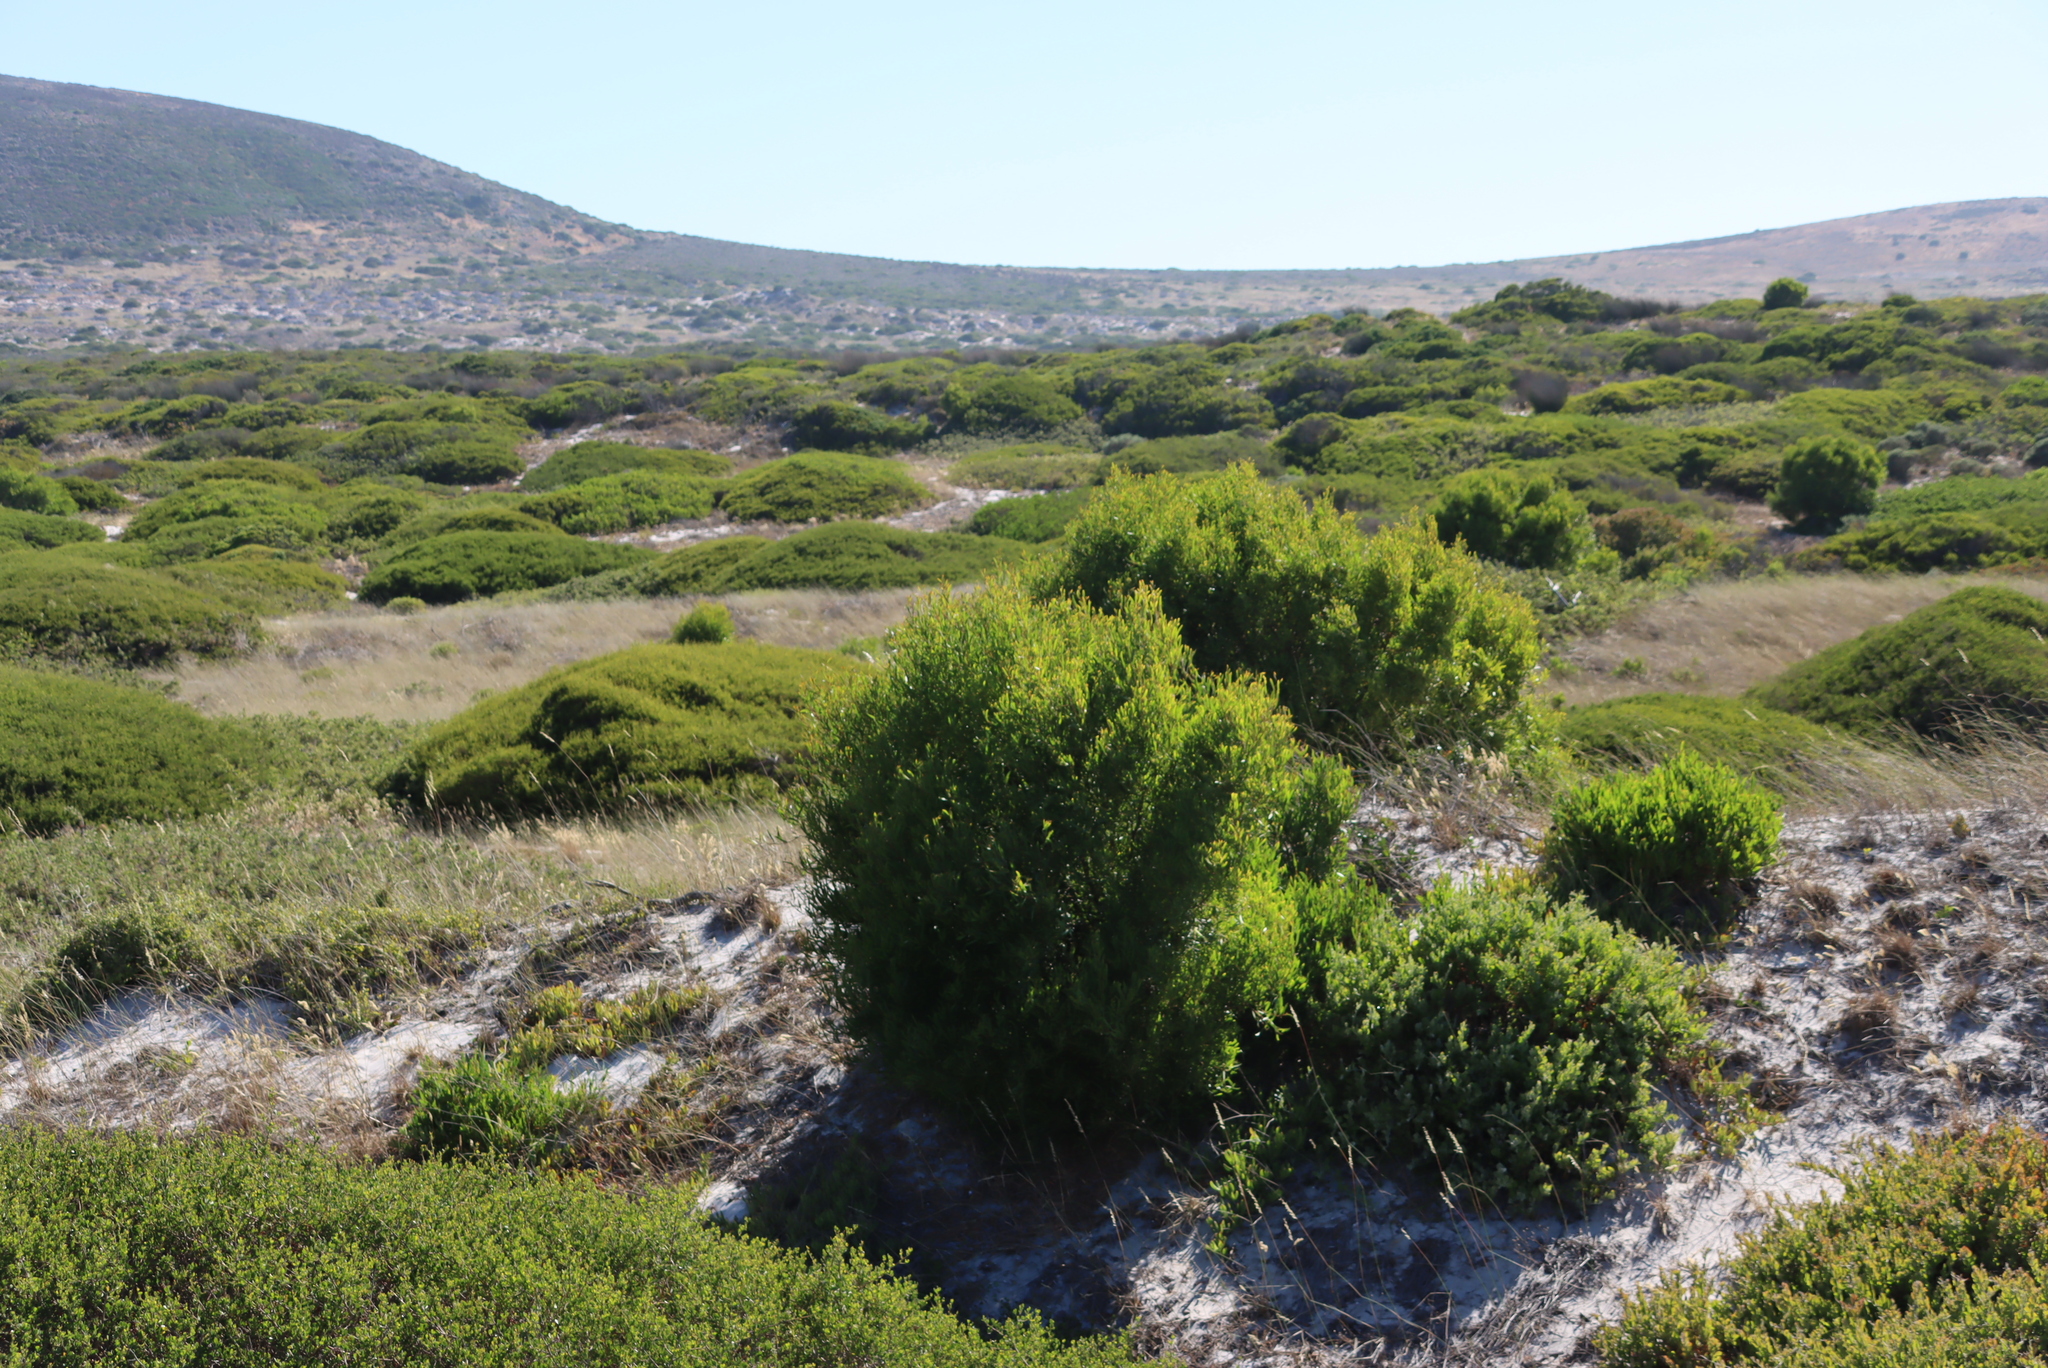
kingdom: Plantae
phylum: Tracheophyta
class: Magnoliopsida
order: Fabales
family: Fabaceae
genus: Acacia
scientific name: Acacia cyclops
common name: Coastal wattle
